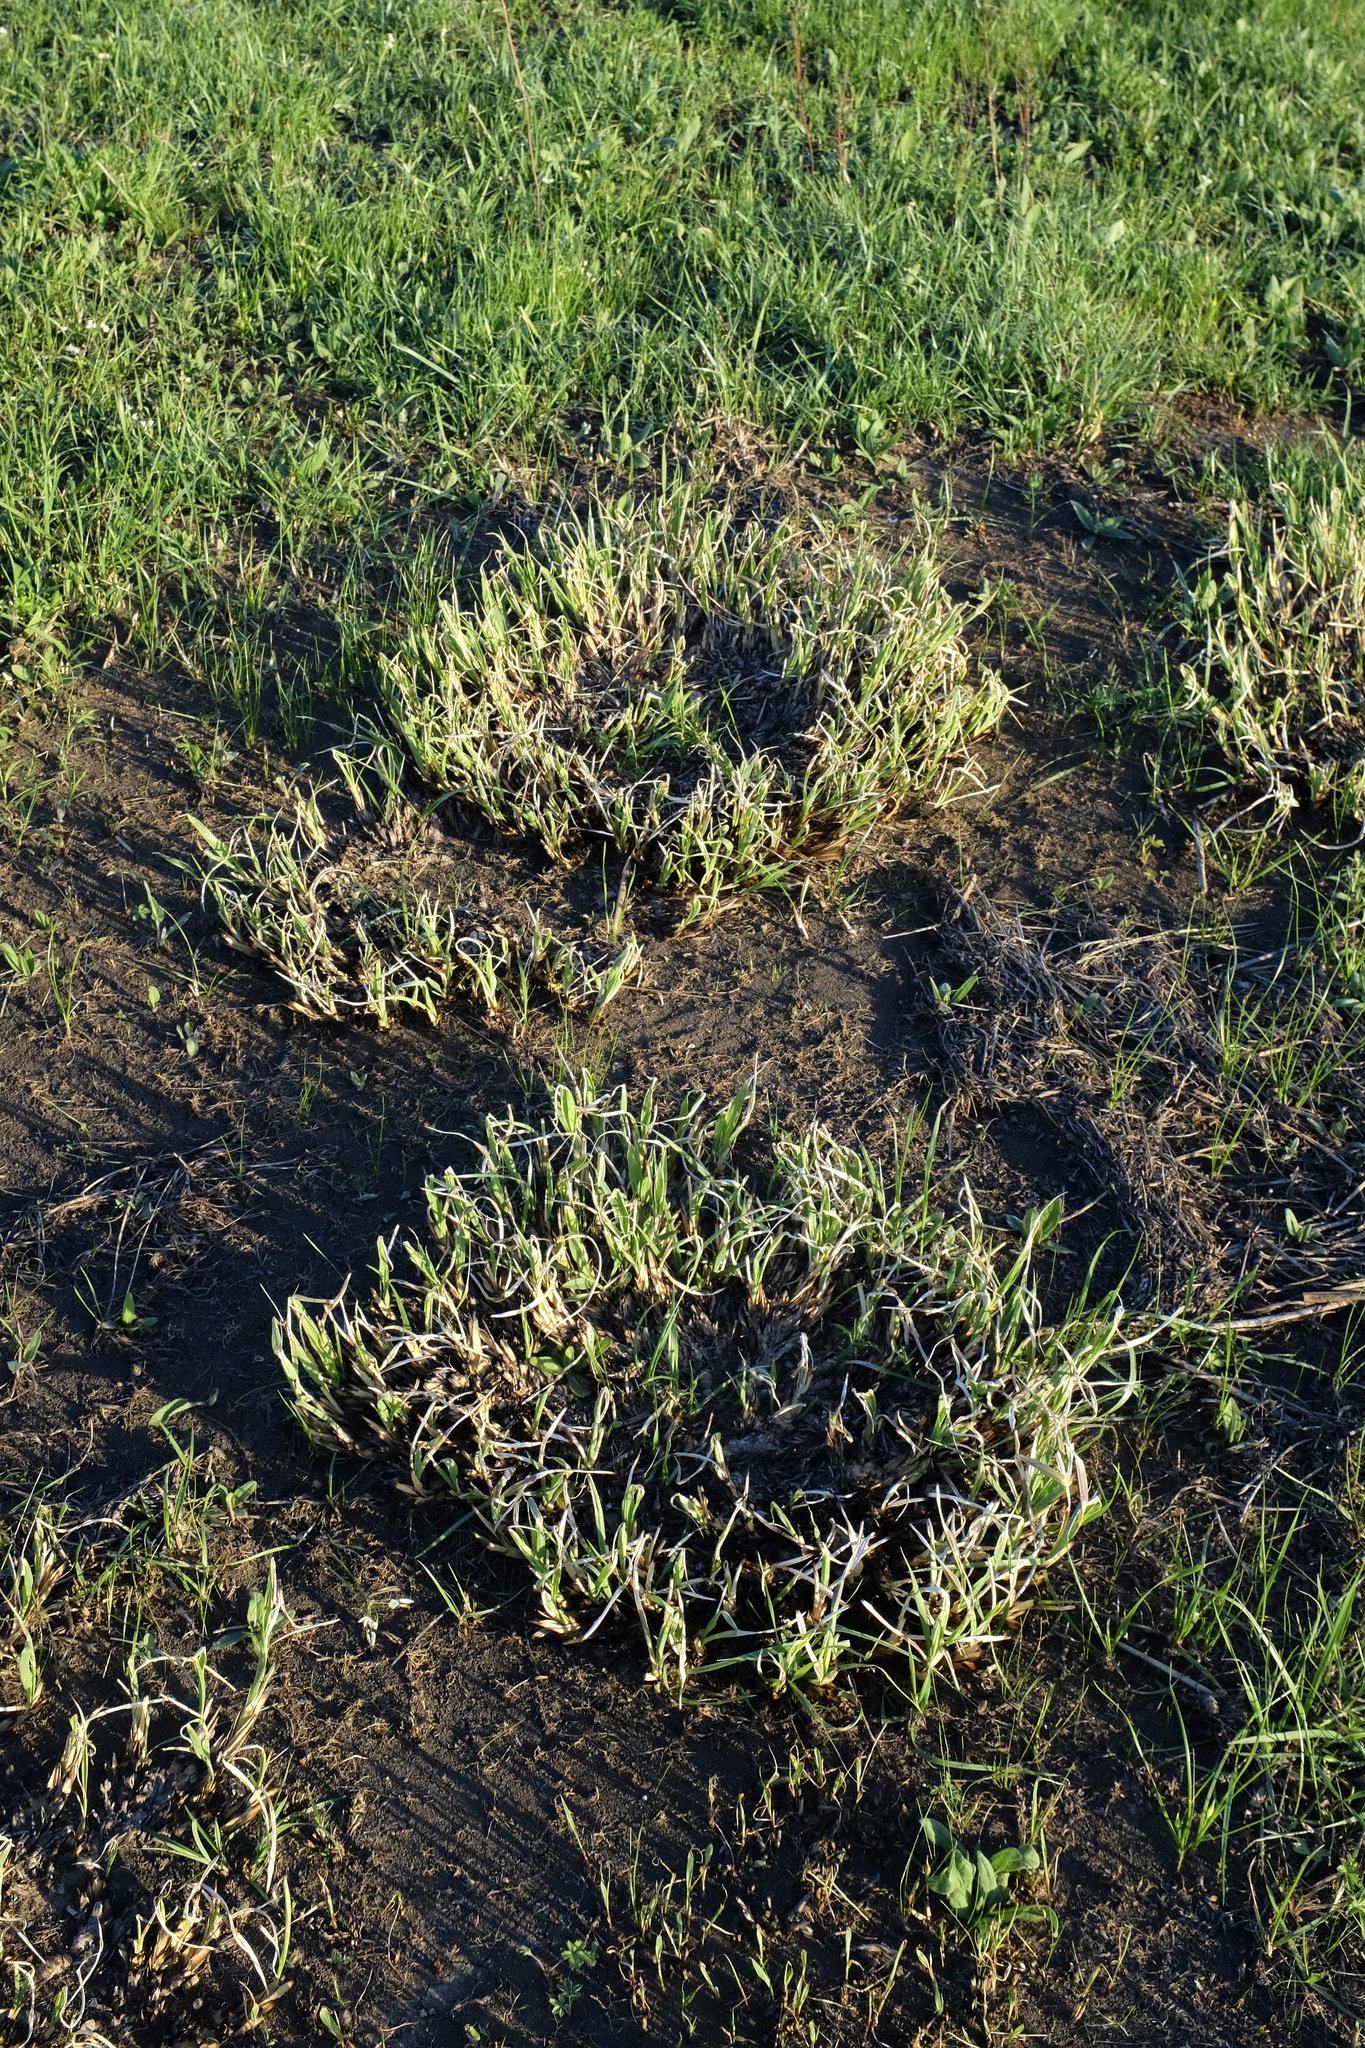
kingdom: Plantae
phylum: Tracheophyta
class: Liliopsida
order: Poales
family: Poaceae
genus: Tripsacum
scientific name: Tripsacum dactyloides
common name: Buffalo-grass
